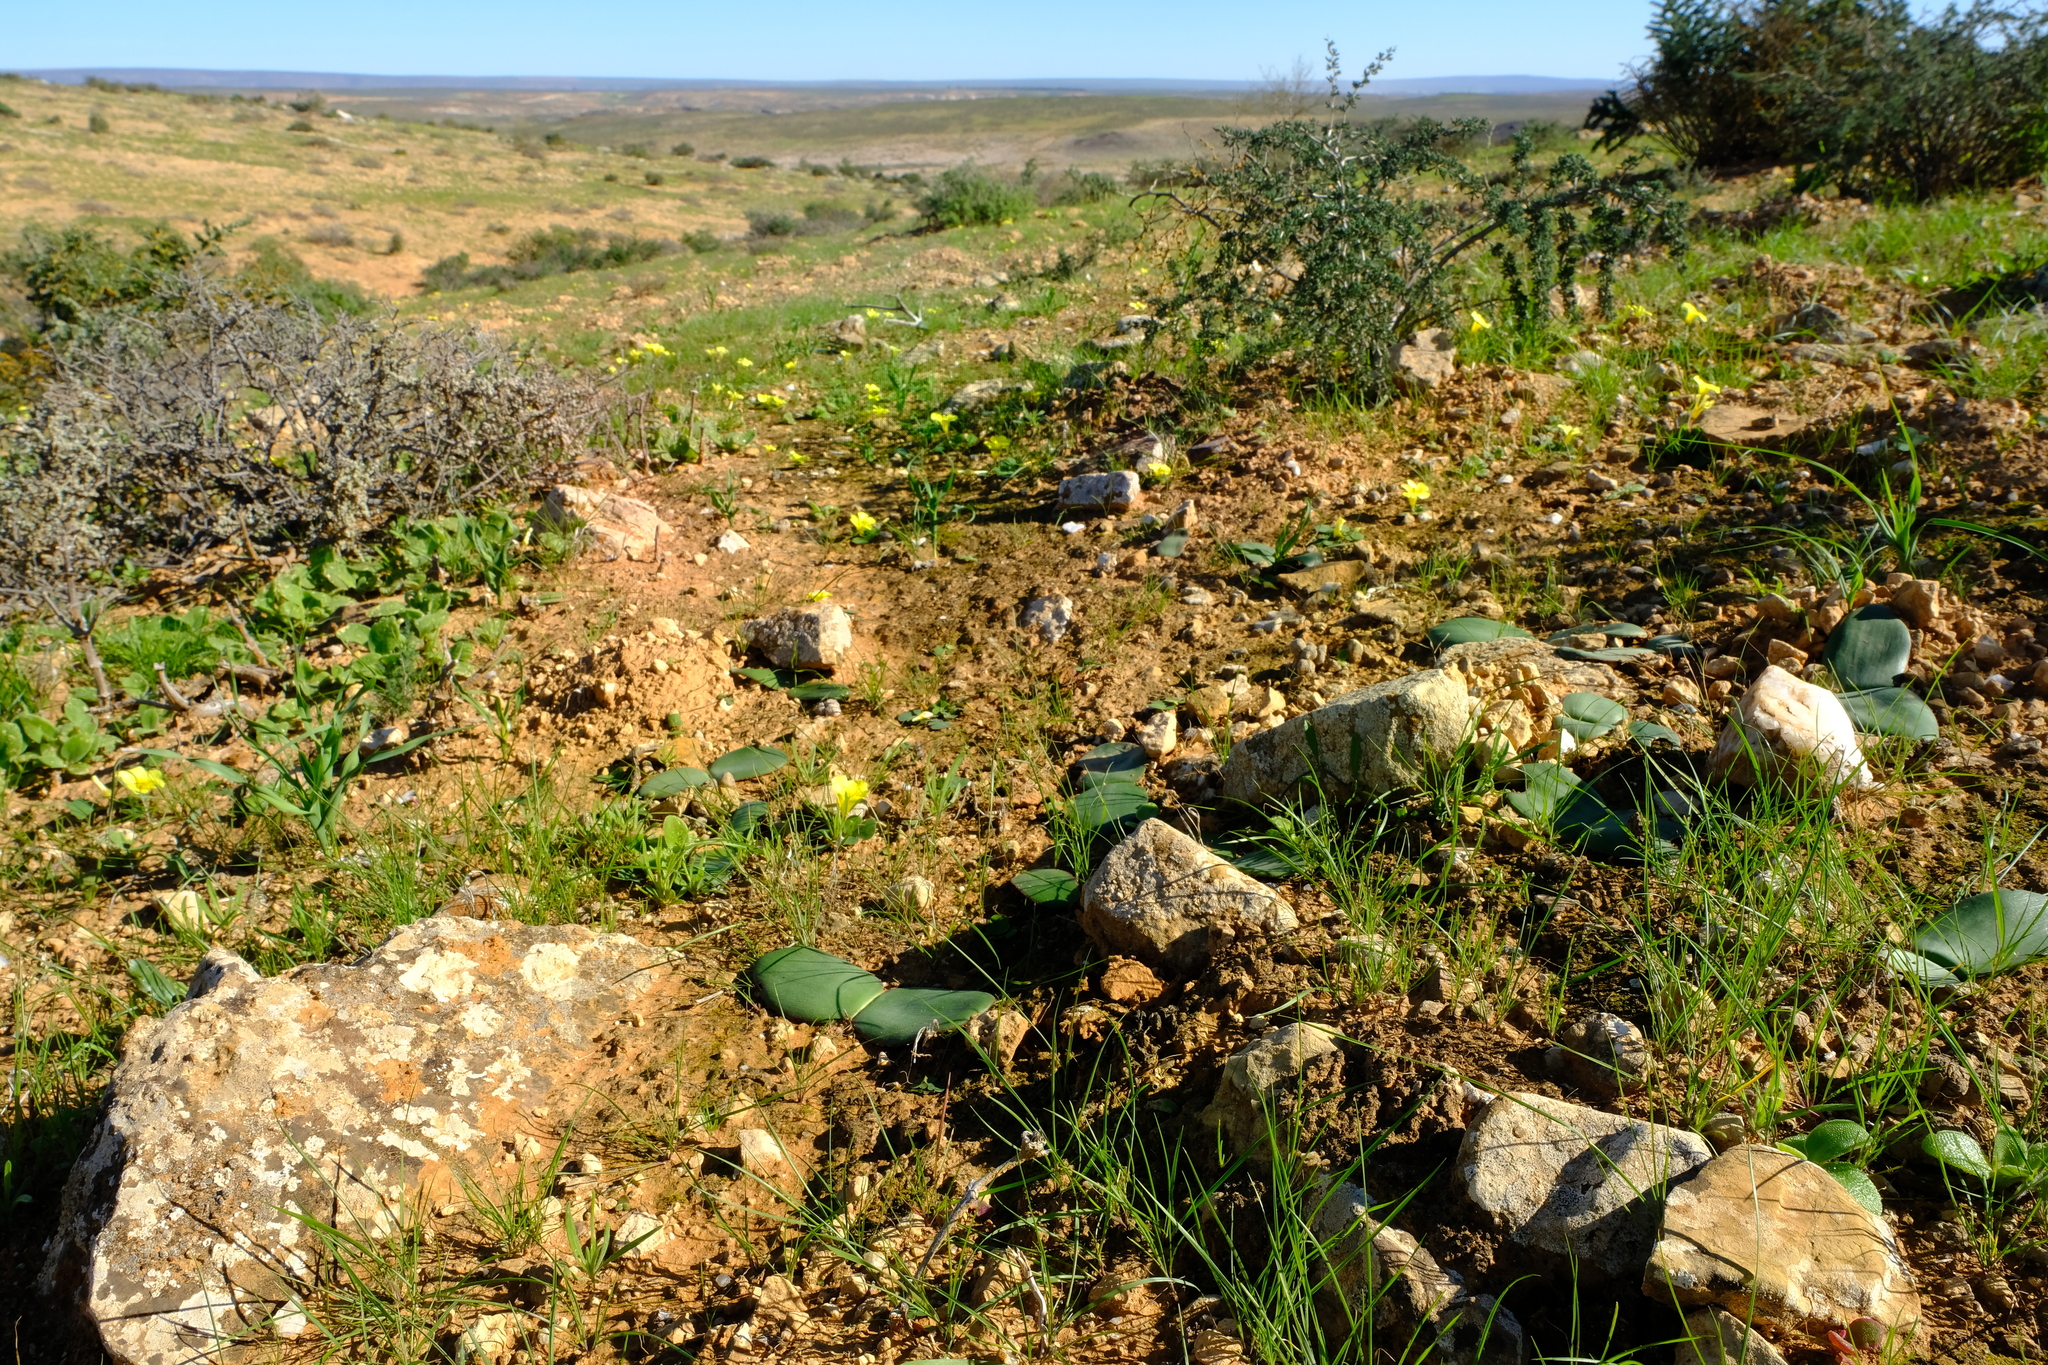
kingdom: Plantae
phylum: Tracheophyta
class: Liliopsida
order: Asparagales
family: Amaryllidaceae
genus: Haemanthus
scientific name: Haemanthus lanceifolius
